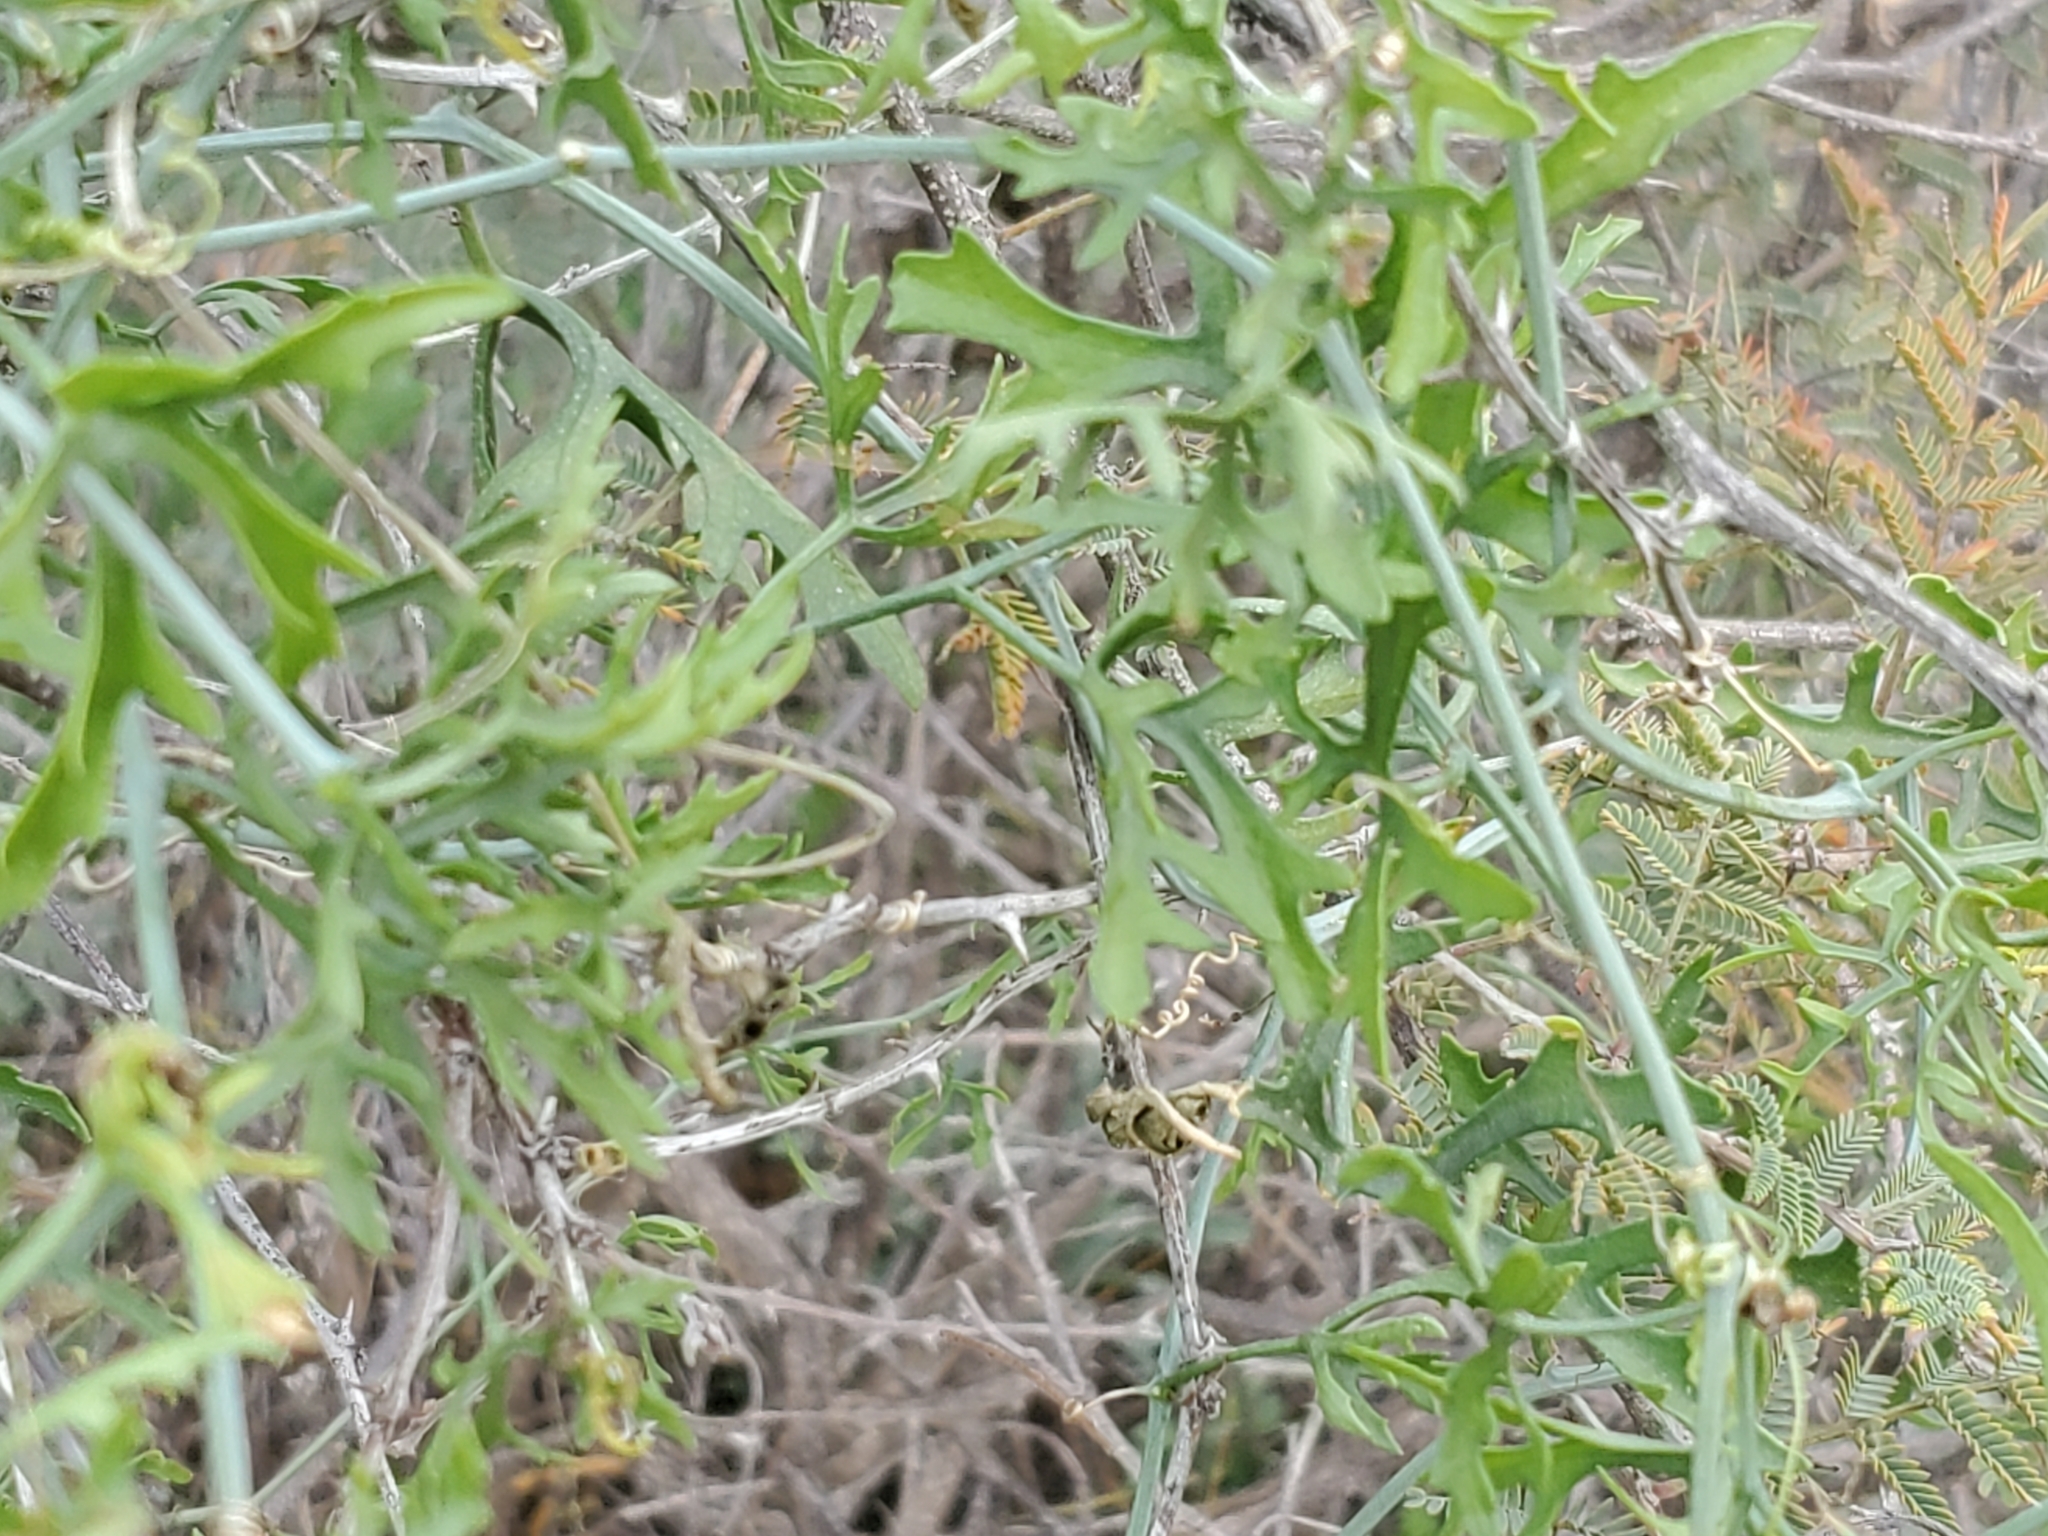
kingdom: Plantae
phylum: Tracheophyta
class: Magnoliopsida
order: Cucurbitales
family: Cucurbitaceae
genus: Ibervillea
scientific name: Ibervillea tenuisecta
